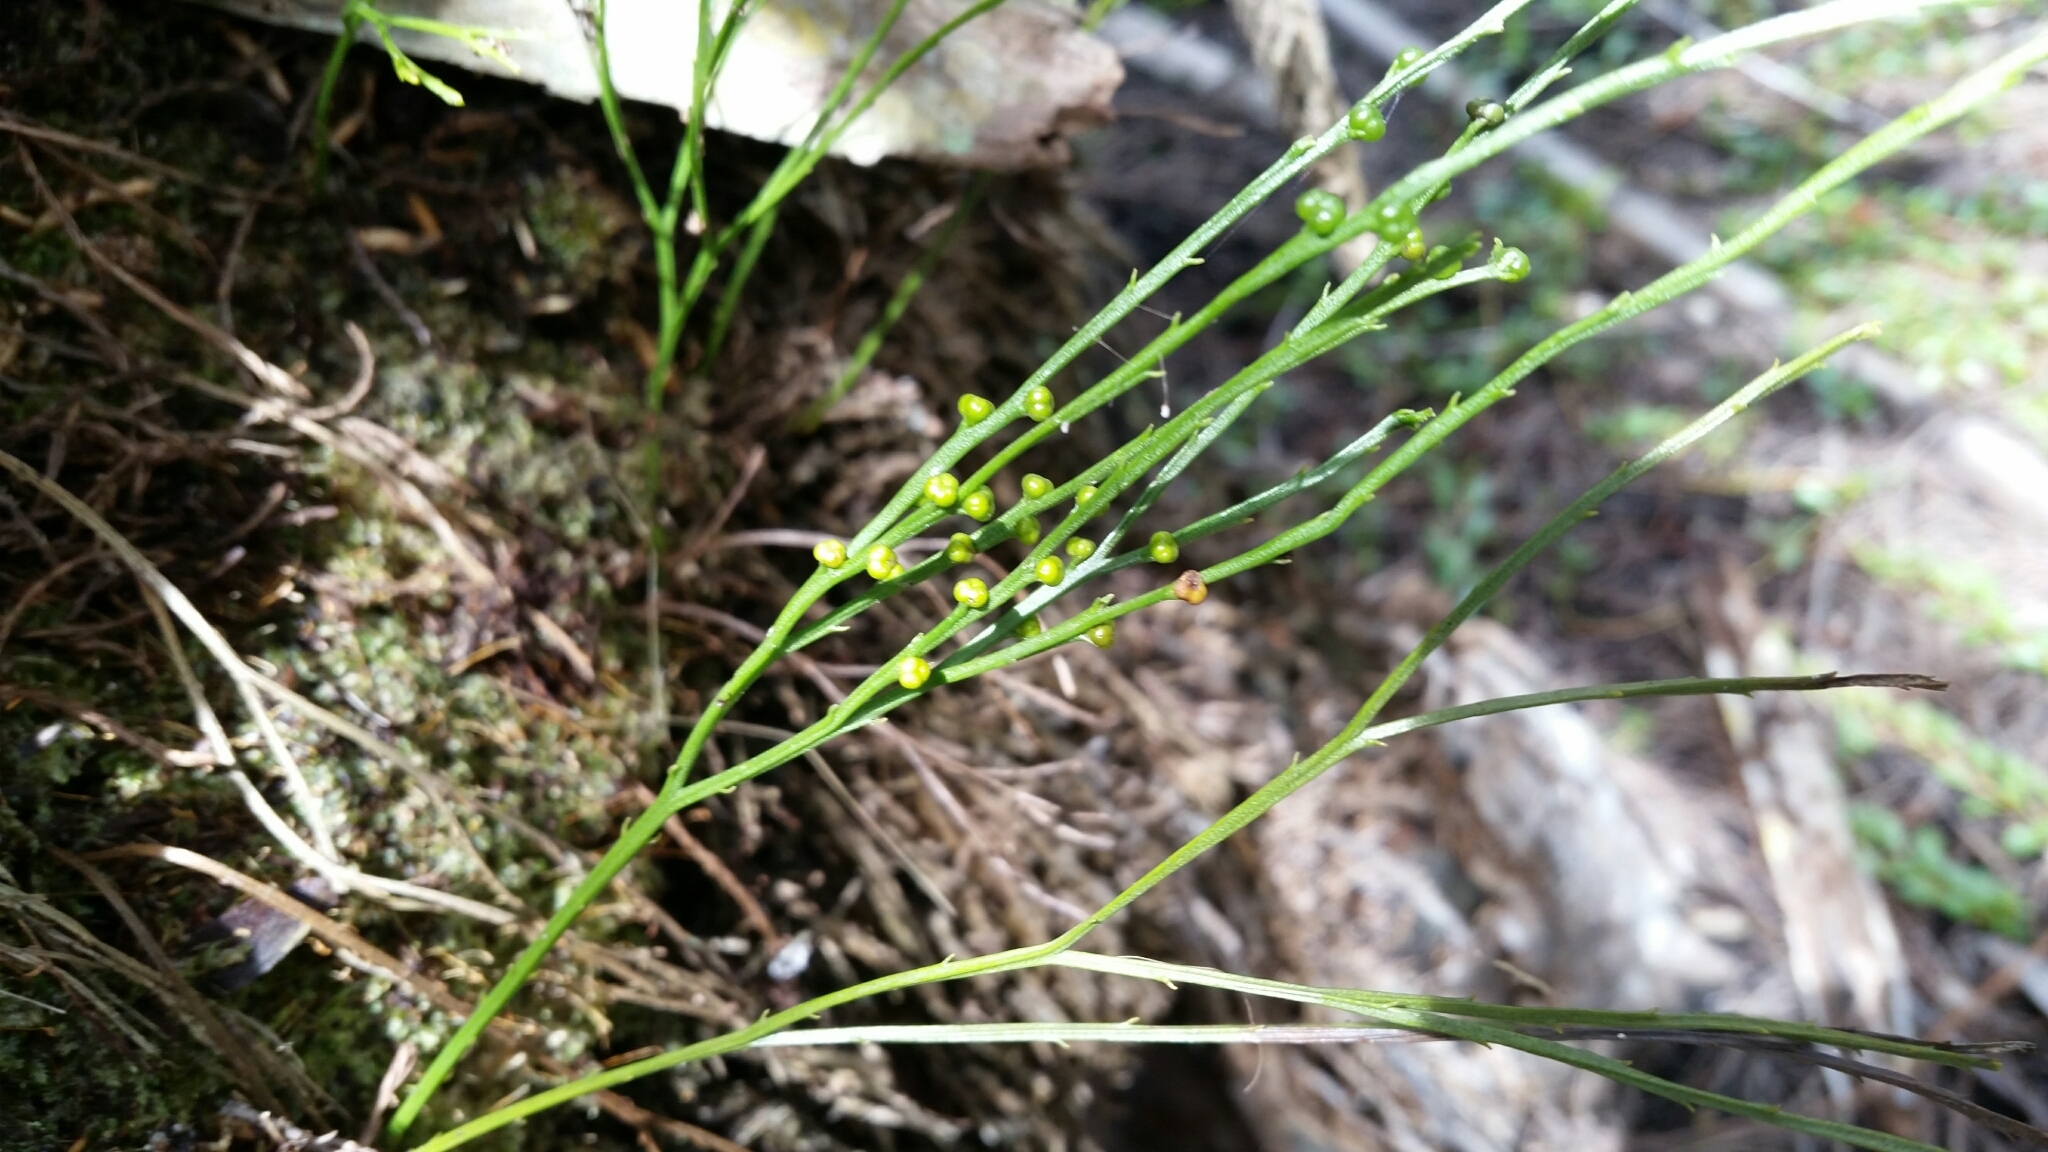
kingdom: Plantae
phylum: Tracheophyta
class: Polypodiopsida
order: Psilotales
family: Psilotaceae
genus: Psilotum
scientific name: Psilotum nudum
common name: Skeleton fork fern
